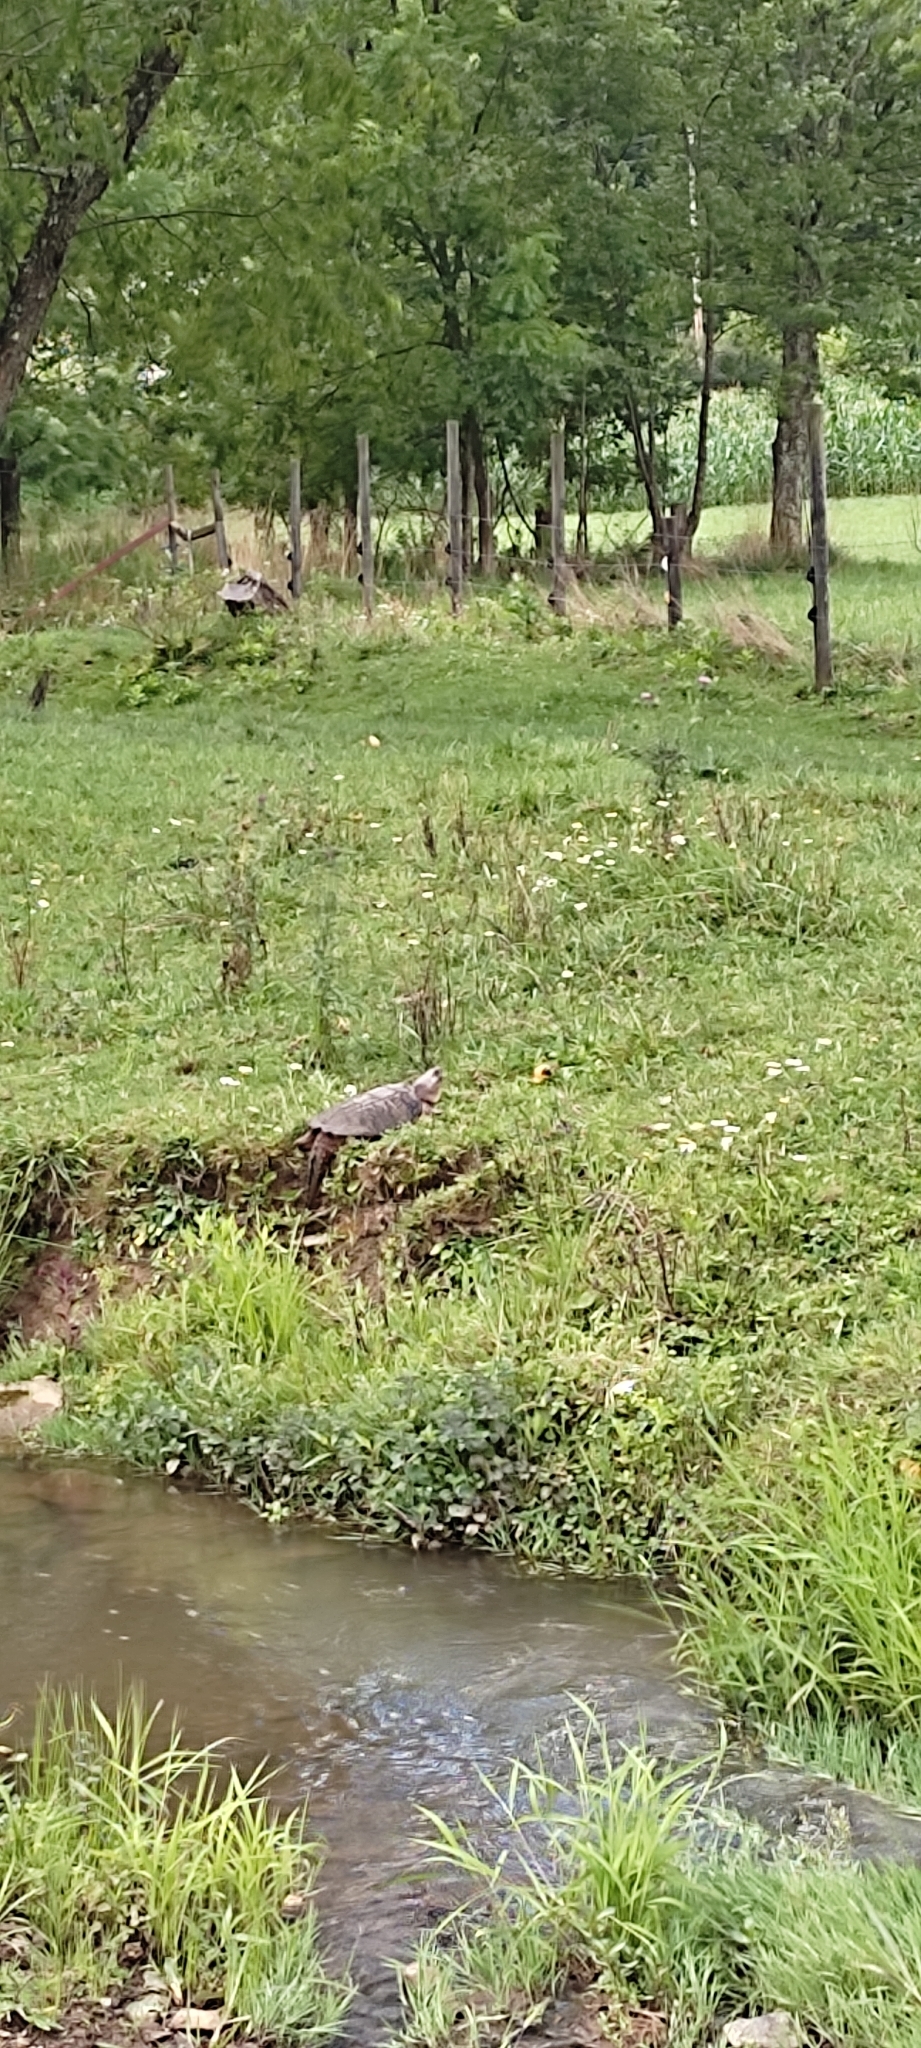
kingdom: Animalia
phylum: Chordata
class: Testudines
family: Chelydridae
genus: Chelydra
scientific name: Chelydra serpentina
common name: Common snapping turtle
